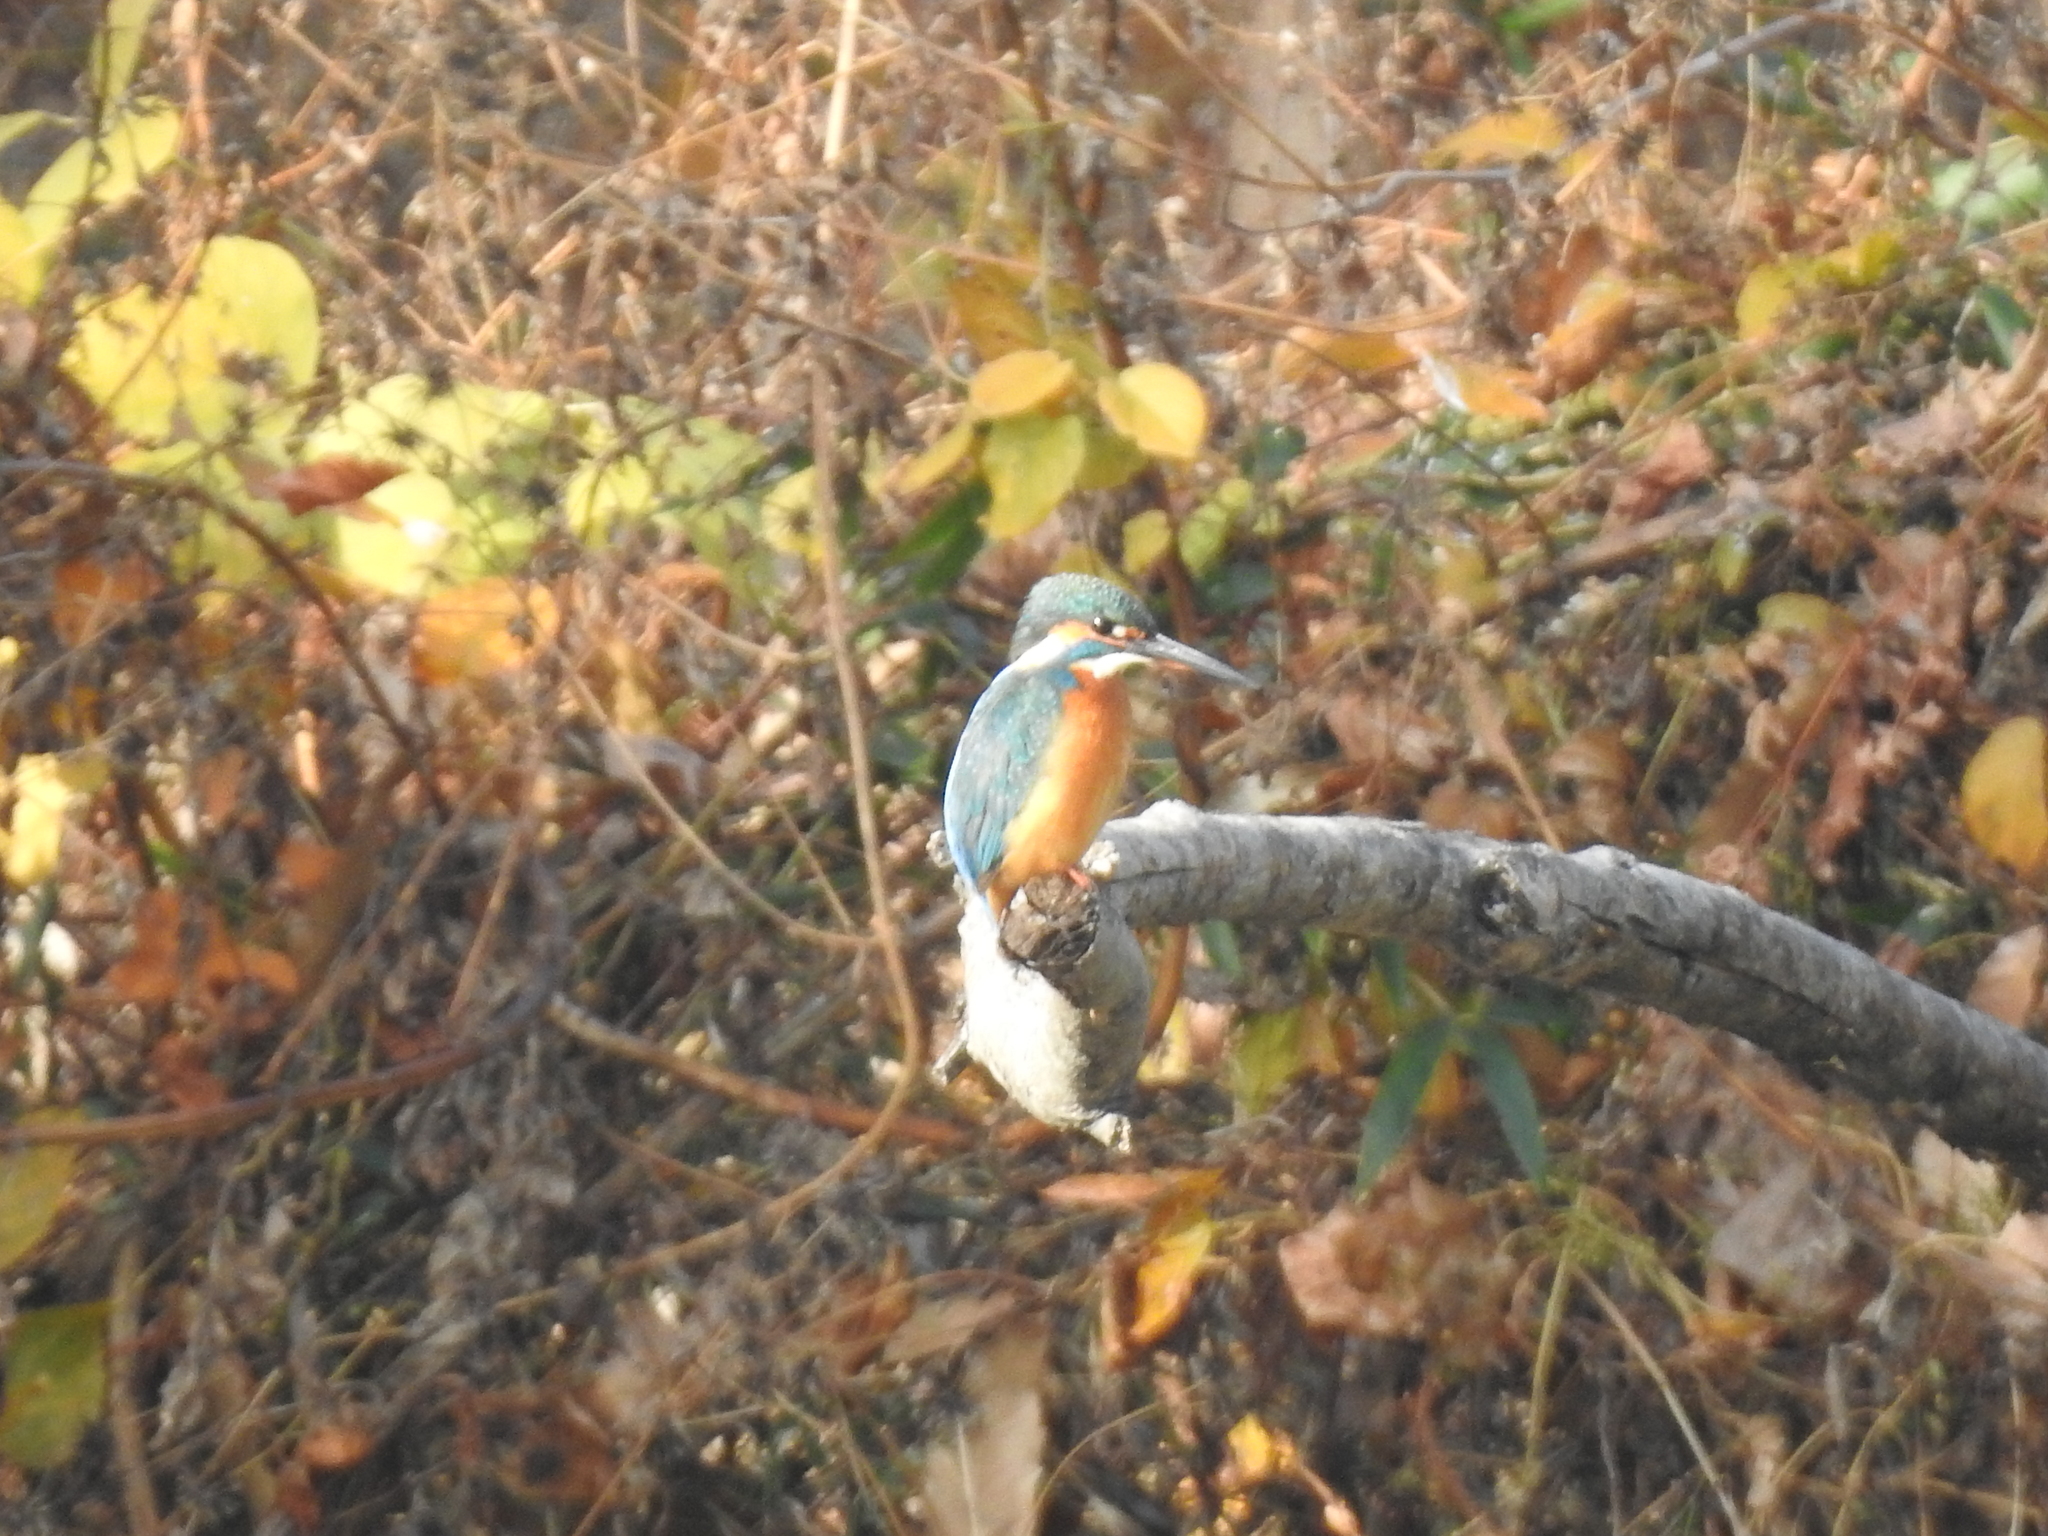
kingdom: Animalia
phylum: Chordata
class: Aves
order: Coraciiformes
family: Alcedinidae
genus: Alcedo
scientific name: Alcedo atthis
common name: Common kingfisher
